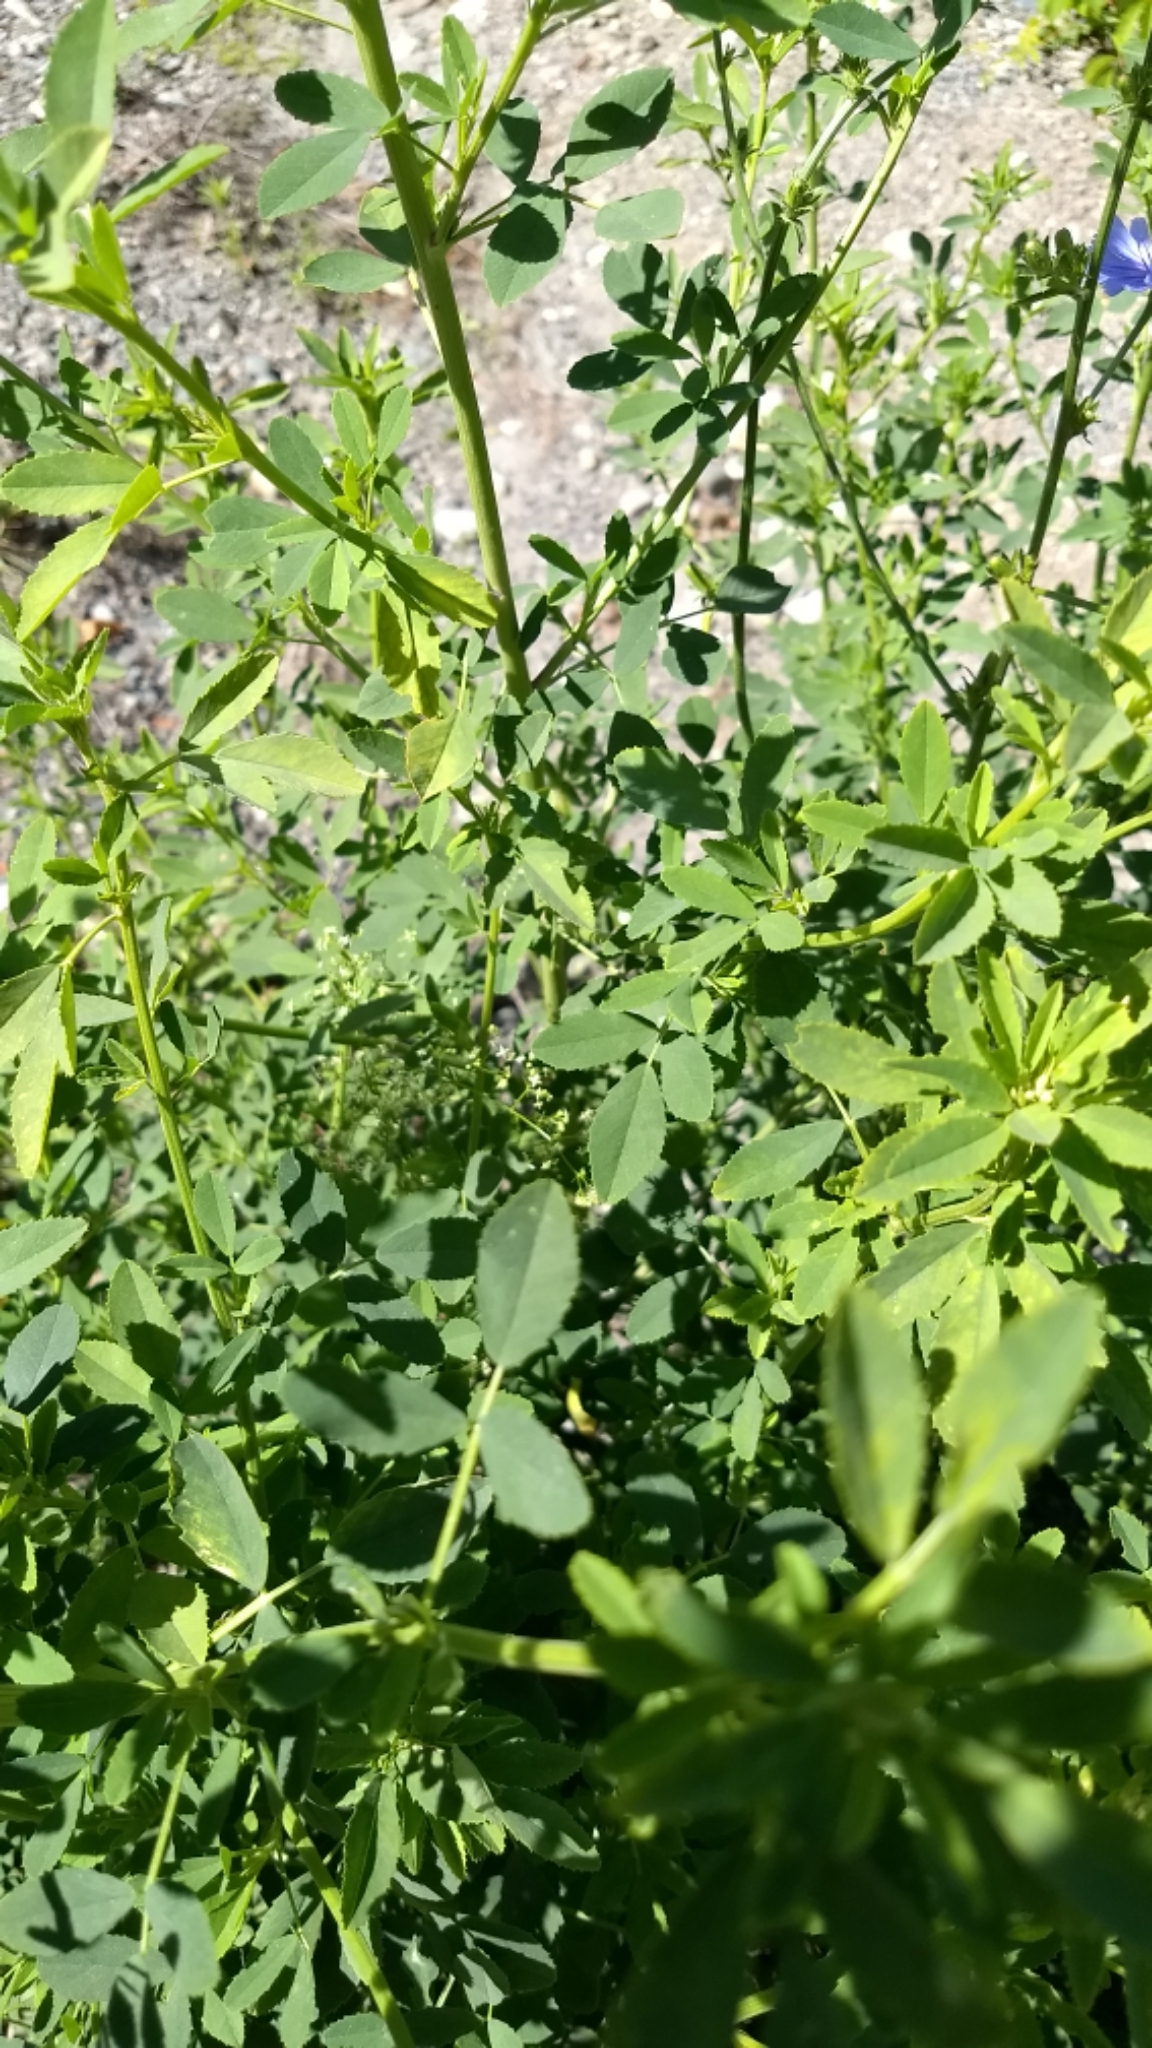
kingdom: Plantae
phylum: Tracheophyta
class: Magnoliopsida
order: Asterales
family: Asteraceae
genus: Cichorium
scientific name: Cichorium intybus
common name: Chicory
